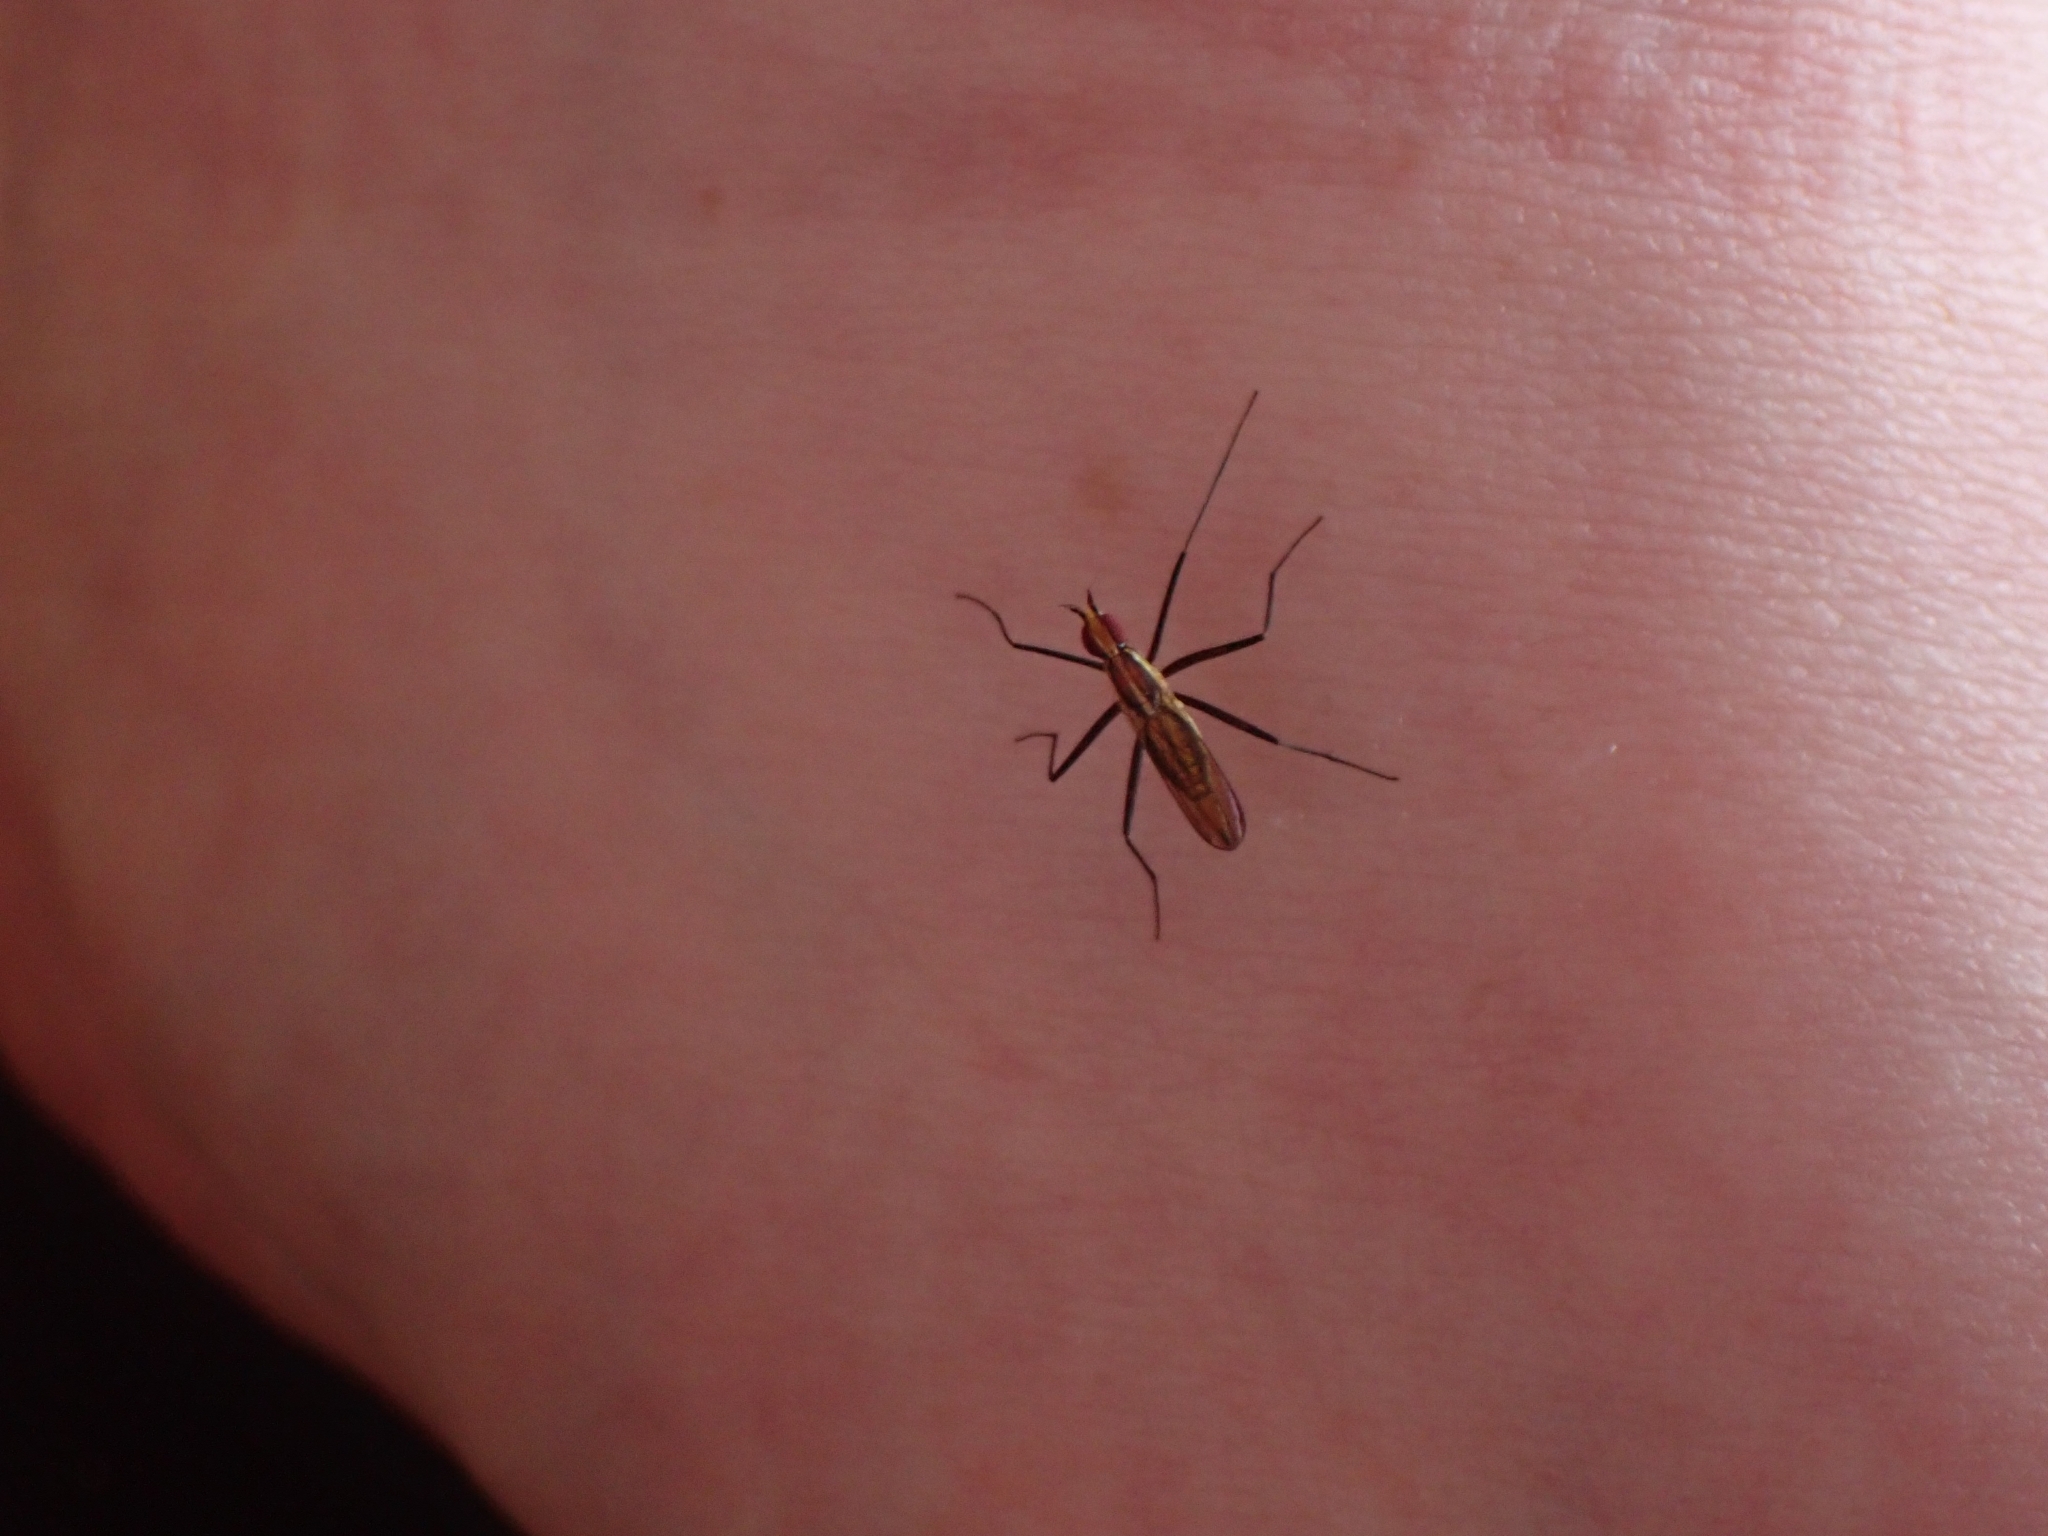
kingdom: Animalia
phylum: Arthropoda
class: Insecta
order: Diptera
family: Neriidae
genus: Telostylinus
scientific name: Telostylinus lineolatus
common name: Banana stalk fly
